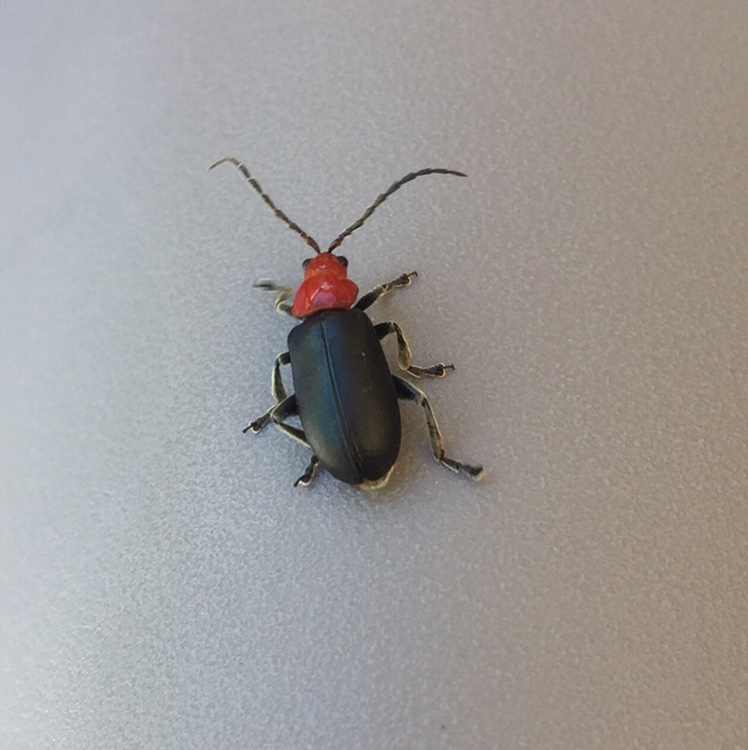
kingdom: Animalia
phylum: Arthropoda
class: Insecta
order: Coleoptera
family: Chrysomelidae
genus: Cacoscelis
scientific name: Cacoscelis
